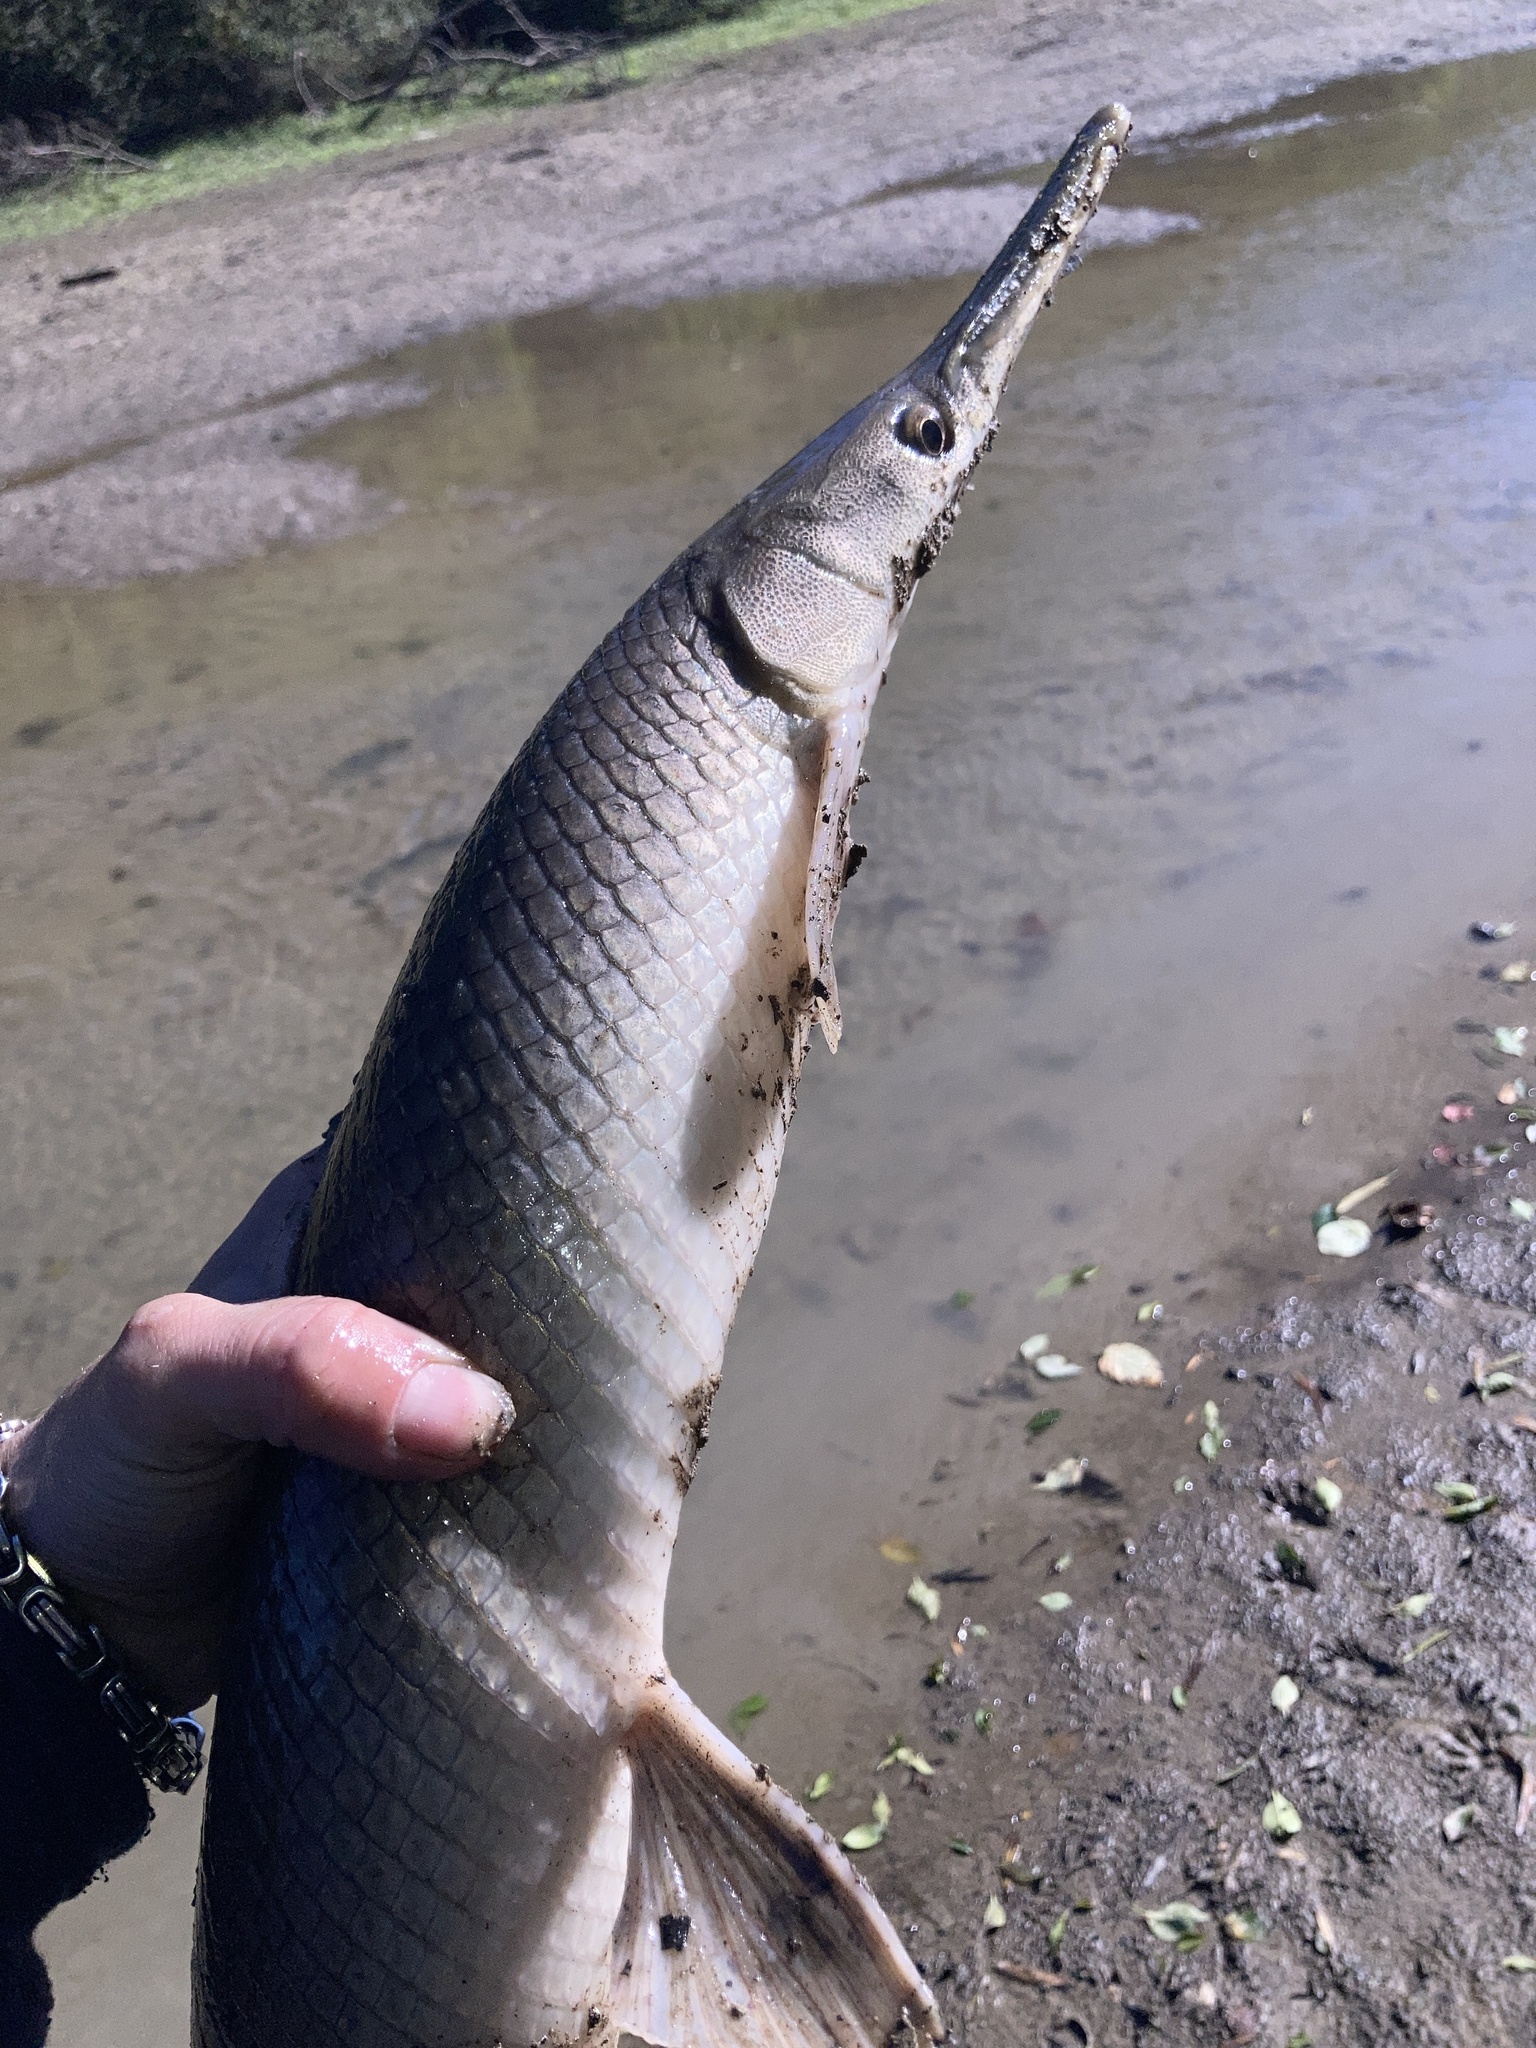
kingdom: Animalia
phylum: Chordata
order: Lepisosteiformes
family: Lepisosteidae
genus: Lepisosteus
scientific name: Lepisosteus platostomus
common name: Shortnose gar
